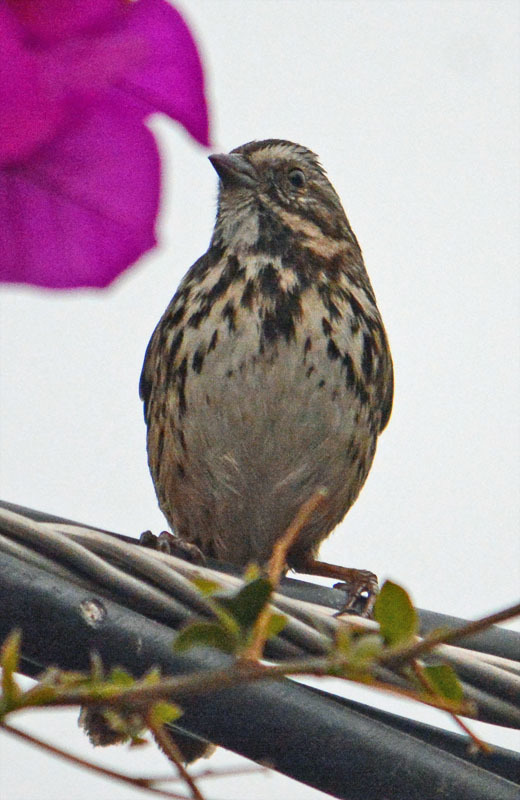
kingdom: Animalia
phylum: Chordata
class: Aves
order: Passeriformes
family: Passerellidae
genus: Melospiza
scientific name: Melospiza melodia
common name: Song sparrow
